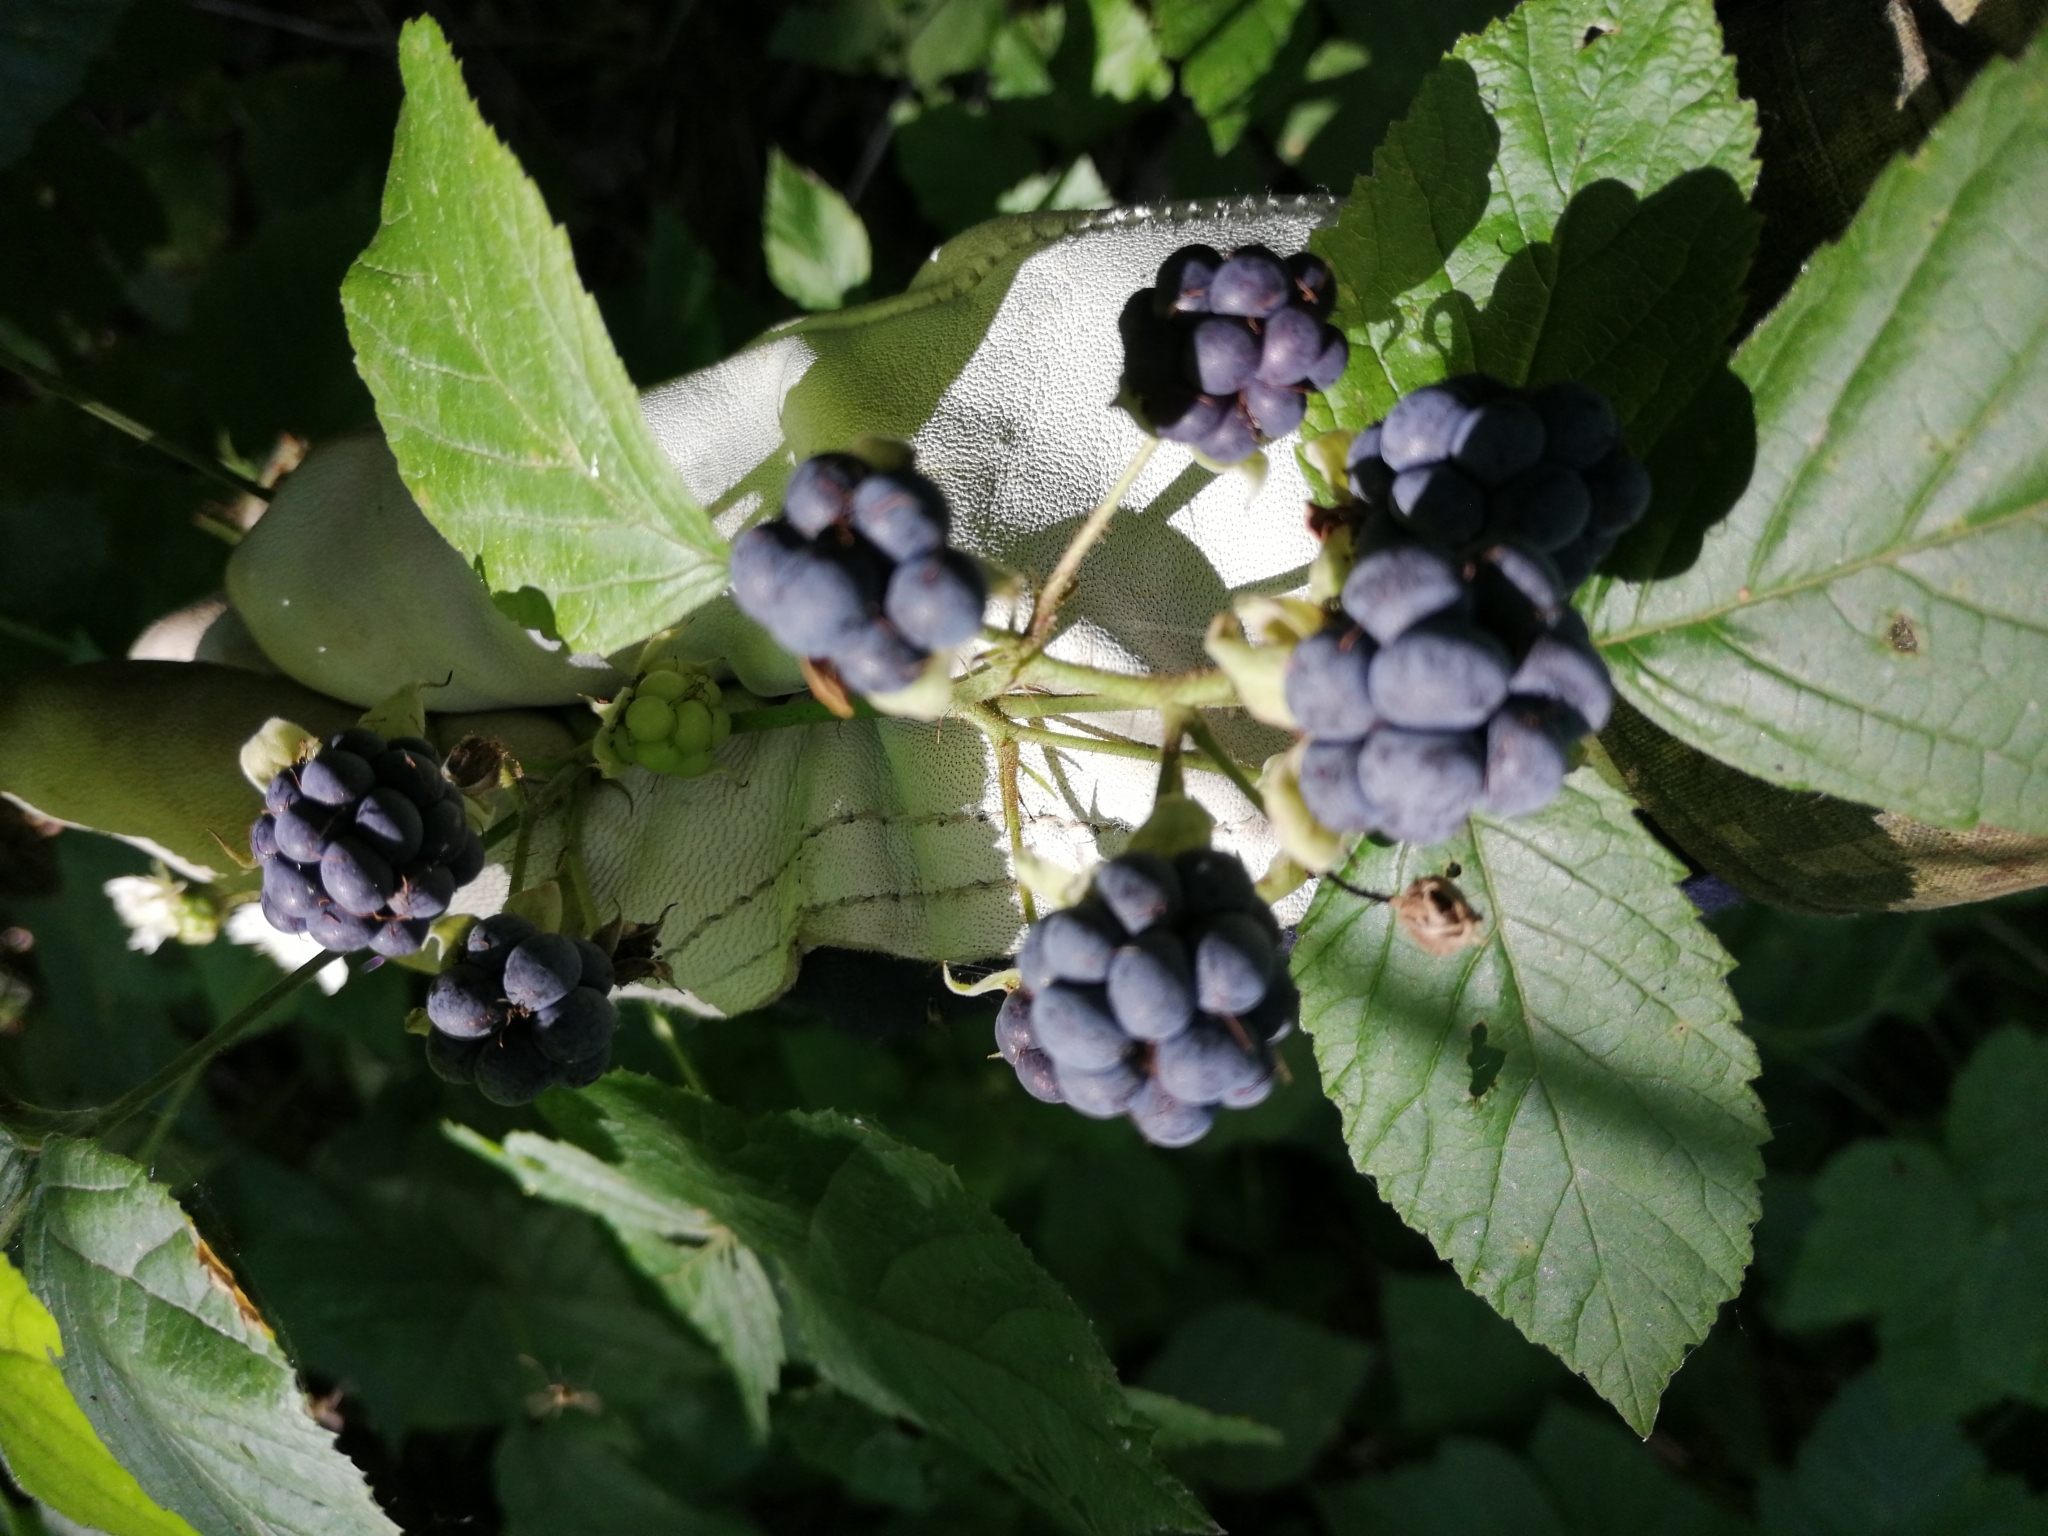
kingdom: Plantae
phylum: Tracheophyta
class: Magnoliopsida
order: Rosales
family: Rosaceae
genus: Rubus
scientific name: Rubus caesius
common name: Dewberry
